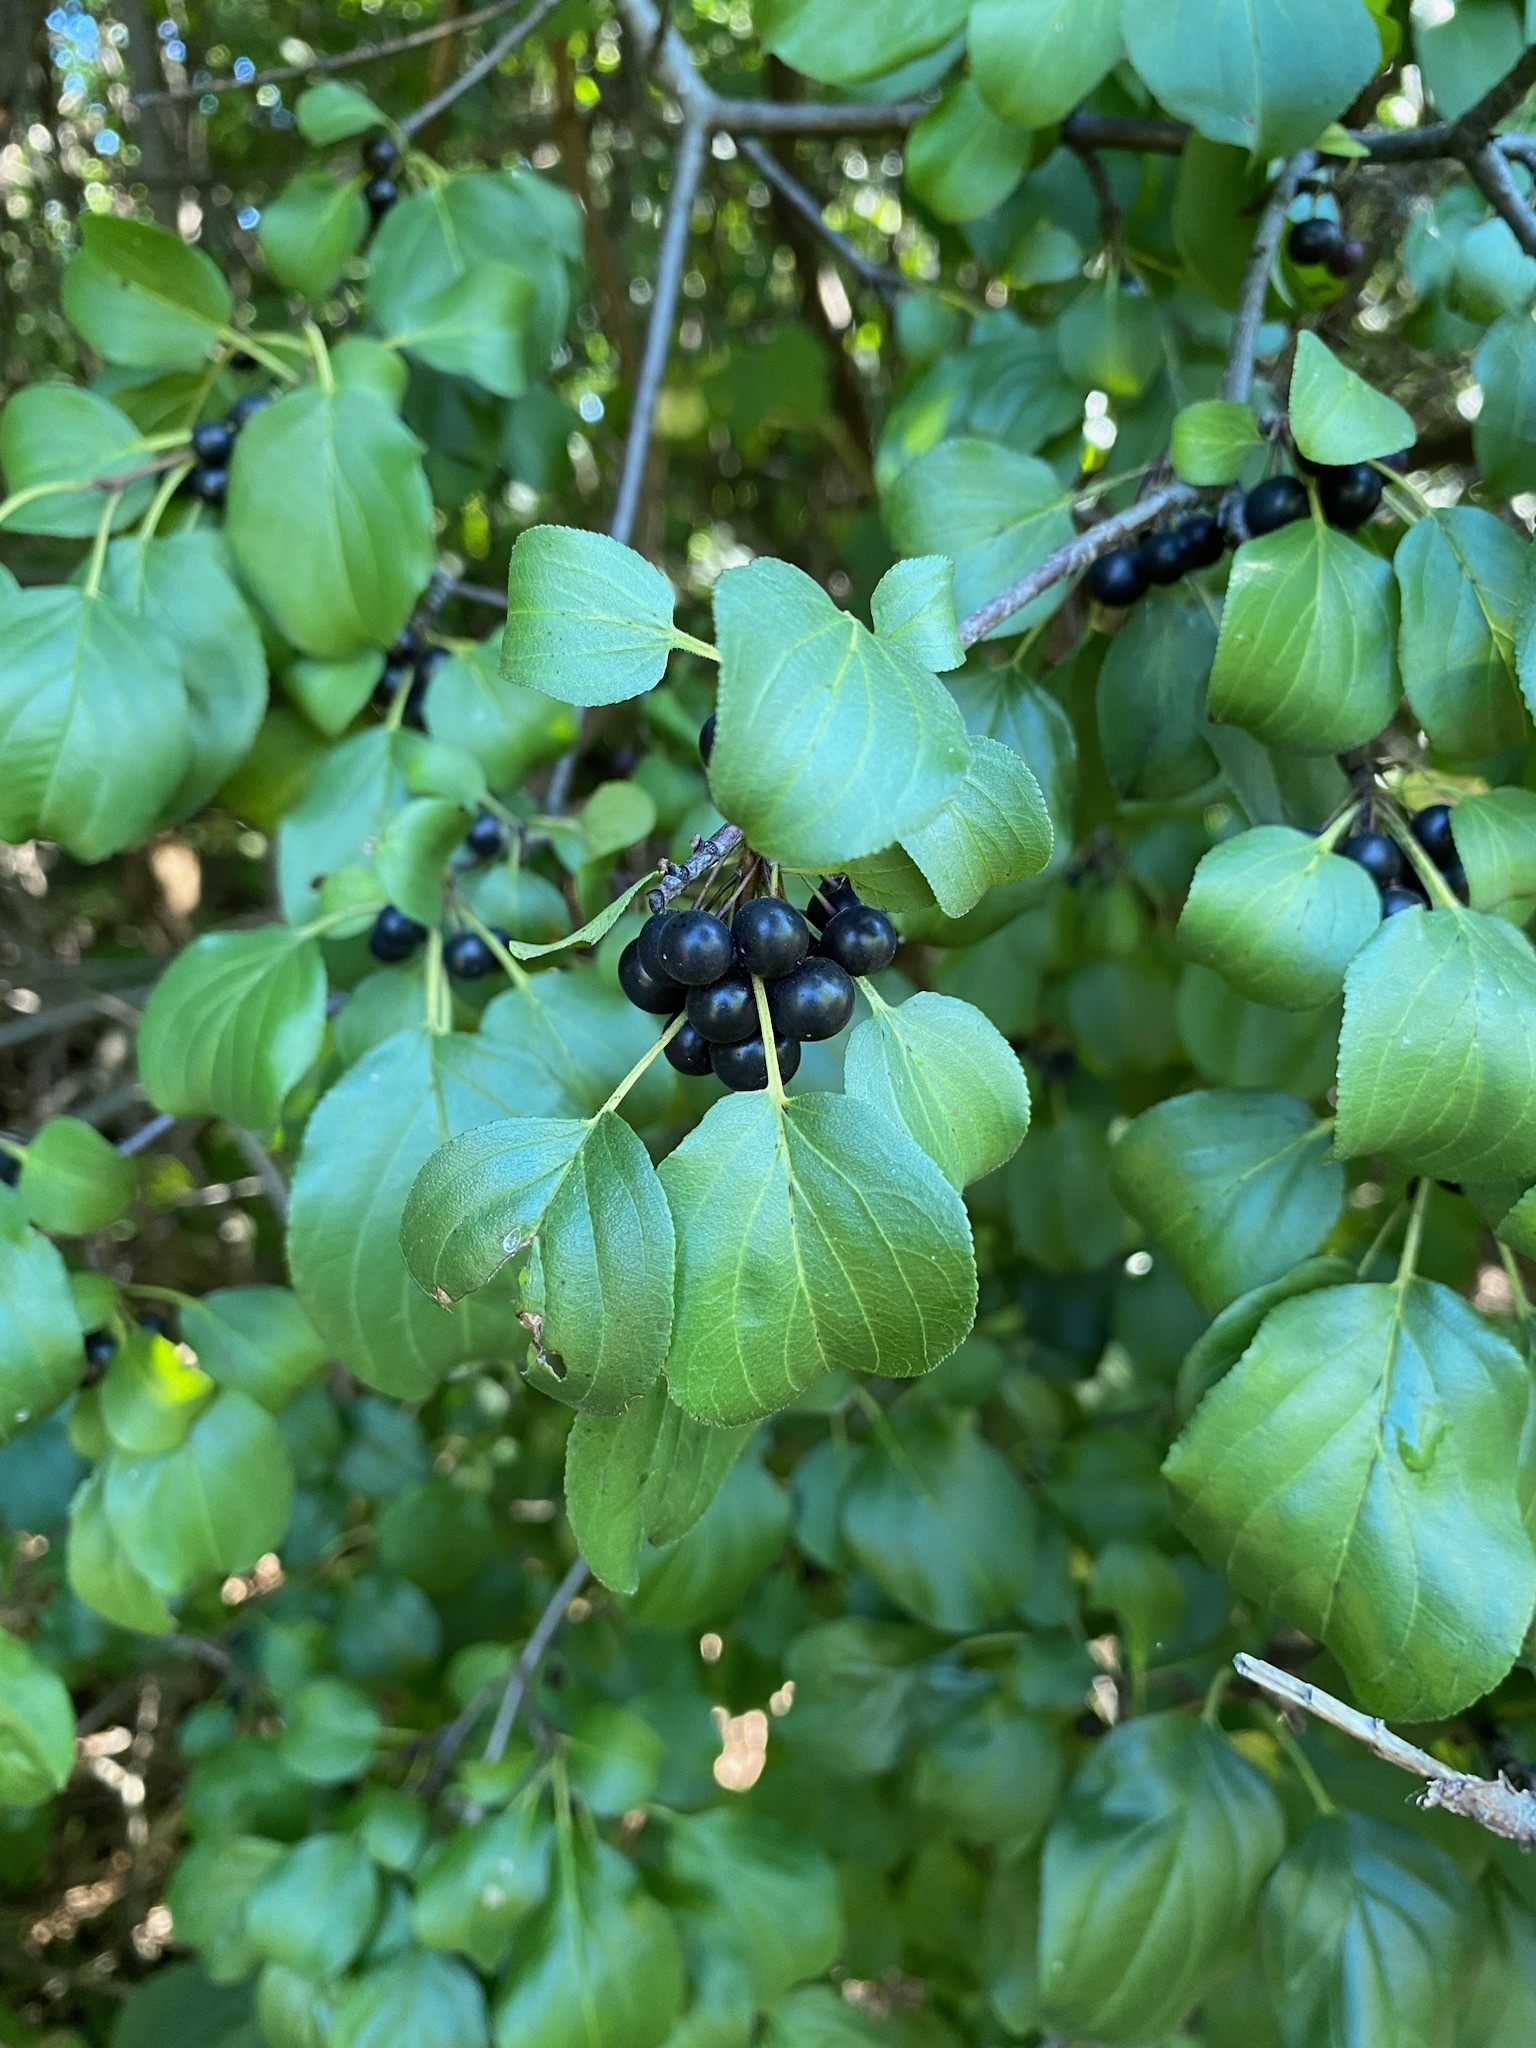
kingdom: Plantae
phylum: Tracheophyta
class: Magnoliopsida
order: Rosales
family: Rhamnaceae
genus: Rhamnus
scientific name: Rhamnus cathartica
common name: Common buckthorn
